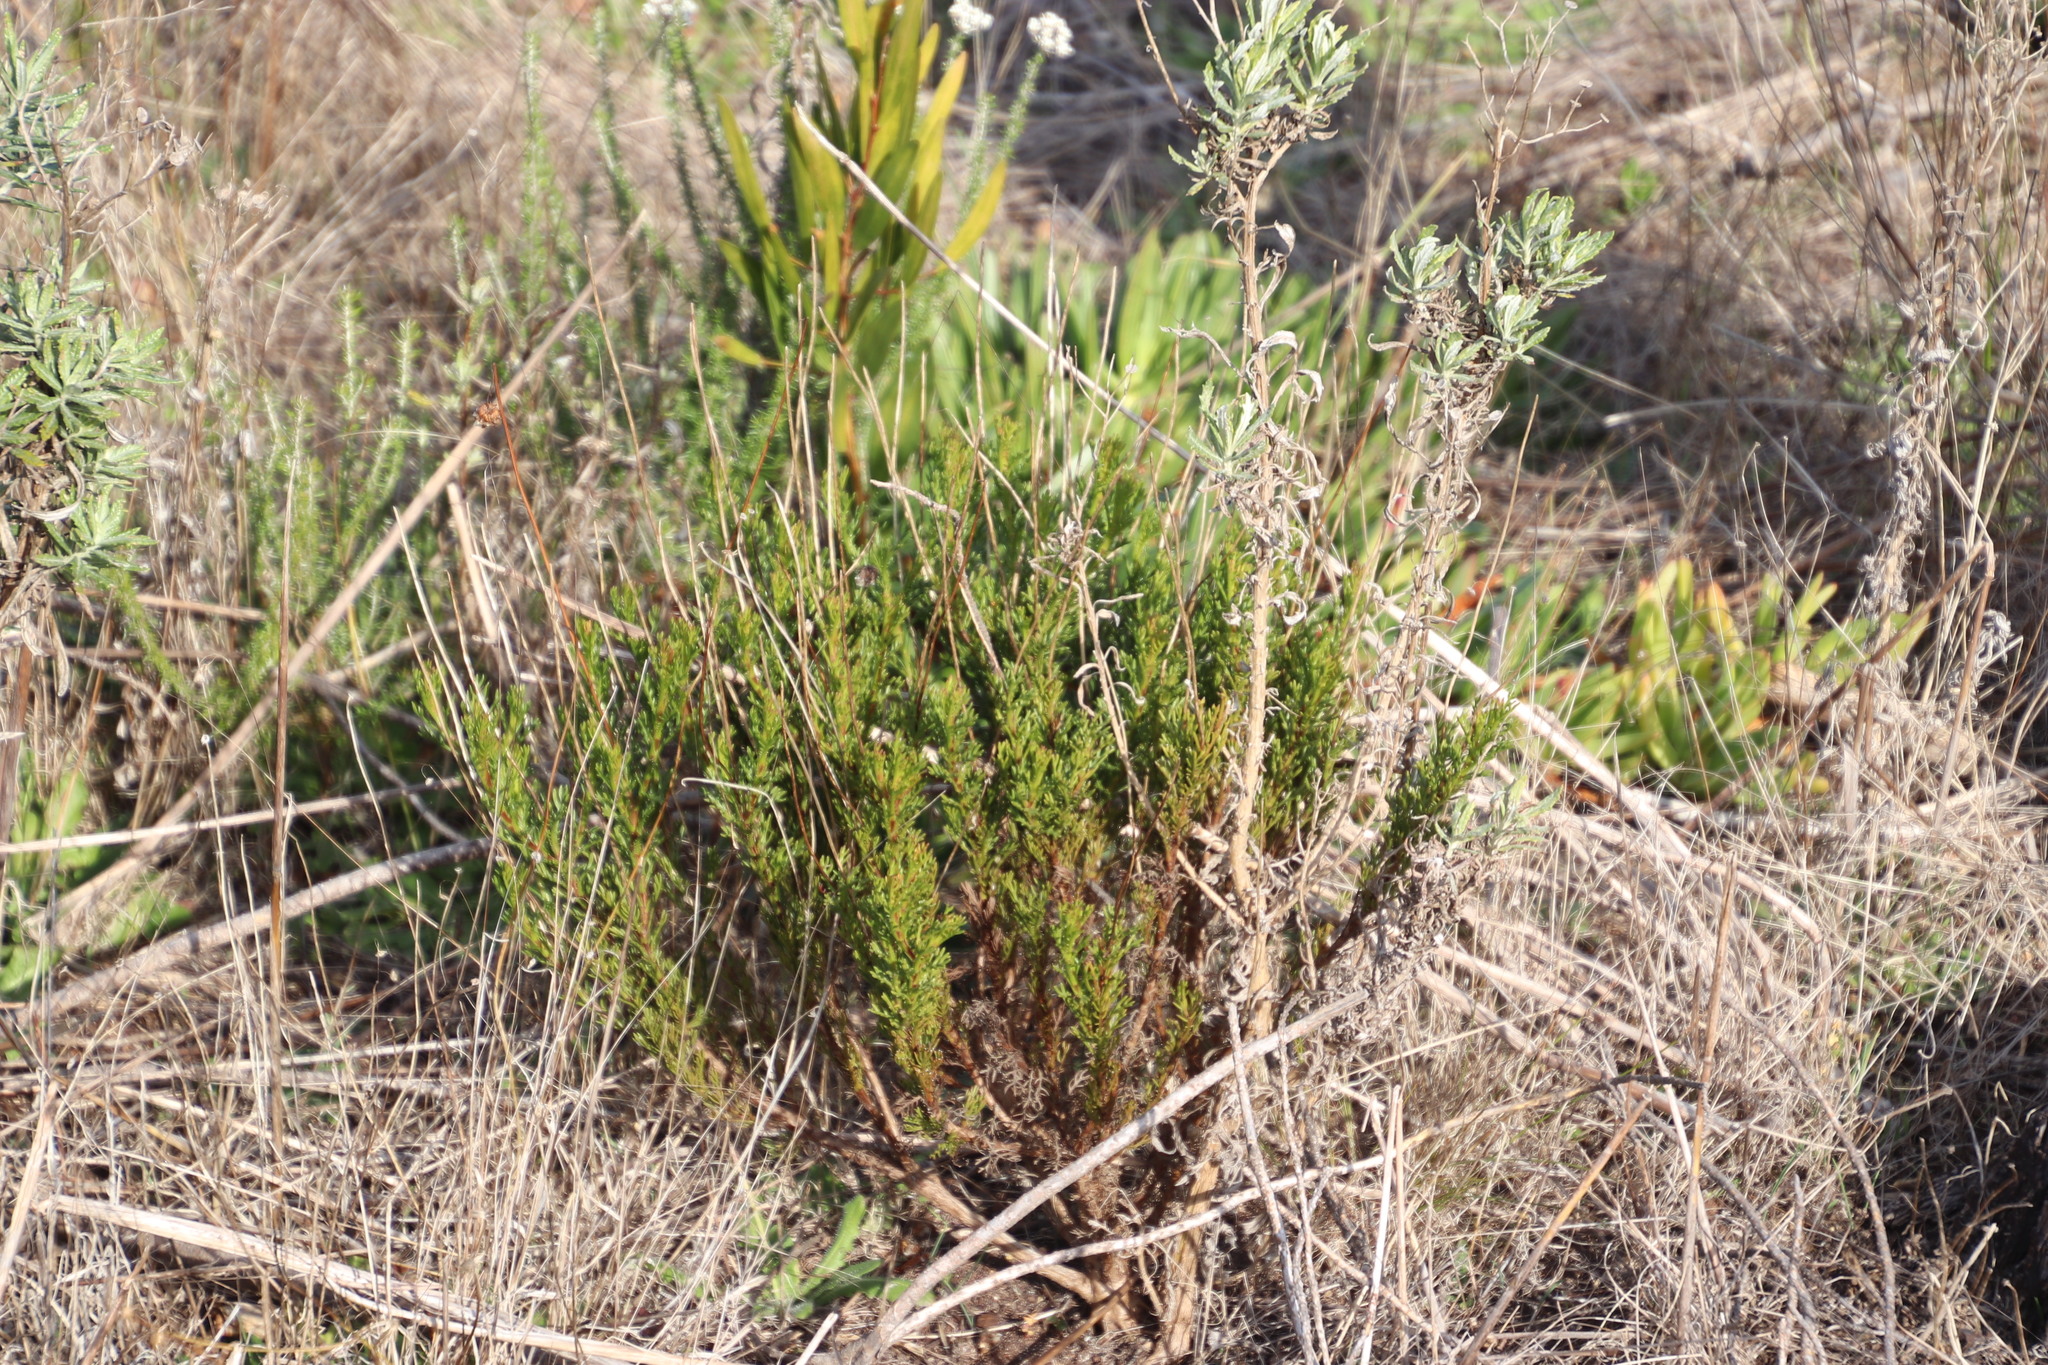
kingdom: Plantae
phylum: Tracheophyta
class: Magnoliopsida
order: Asterales
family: Asteraceae
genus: Ursinia
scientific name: Ursinia paleacea
